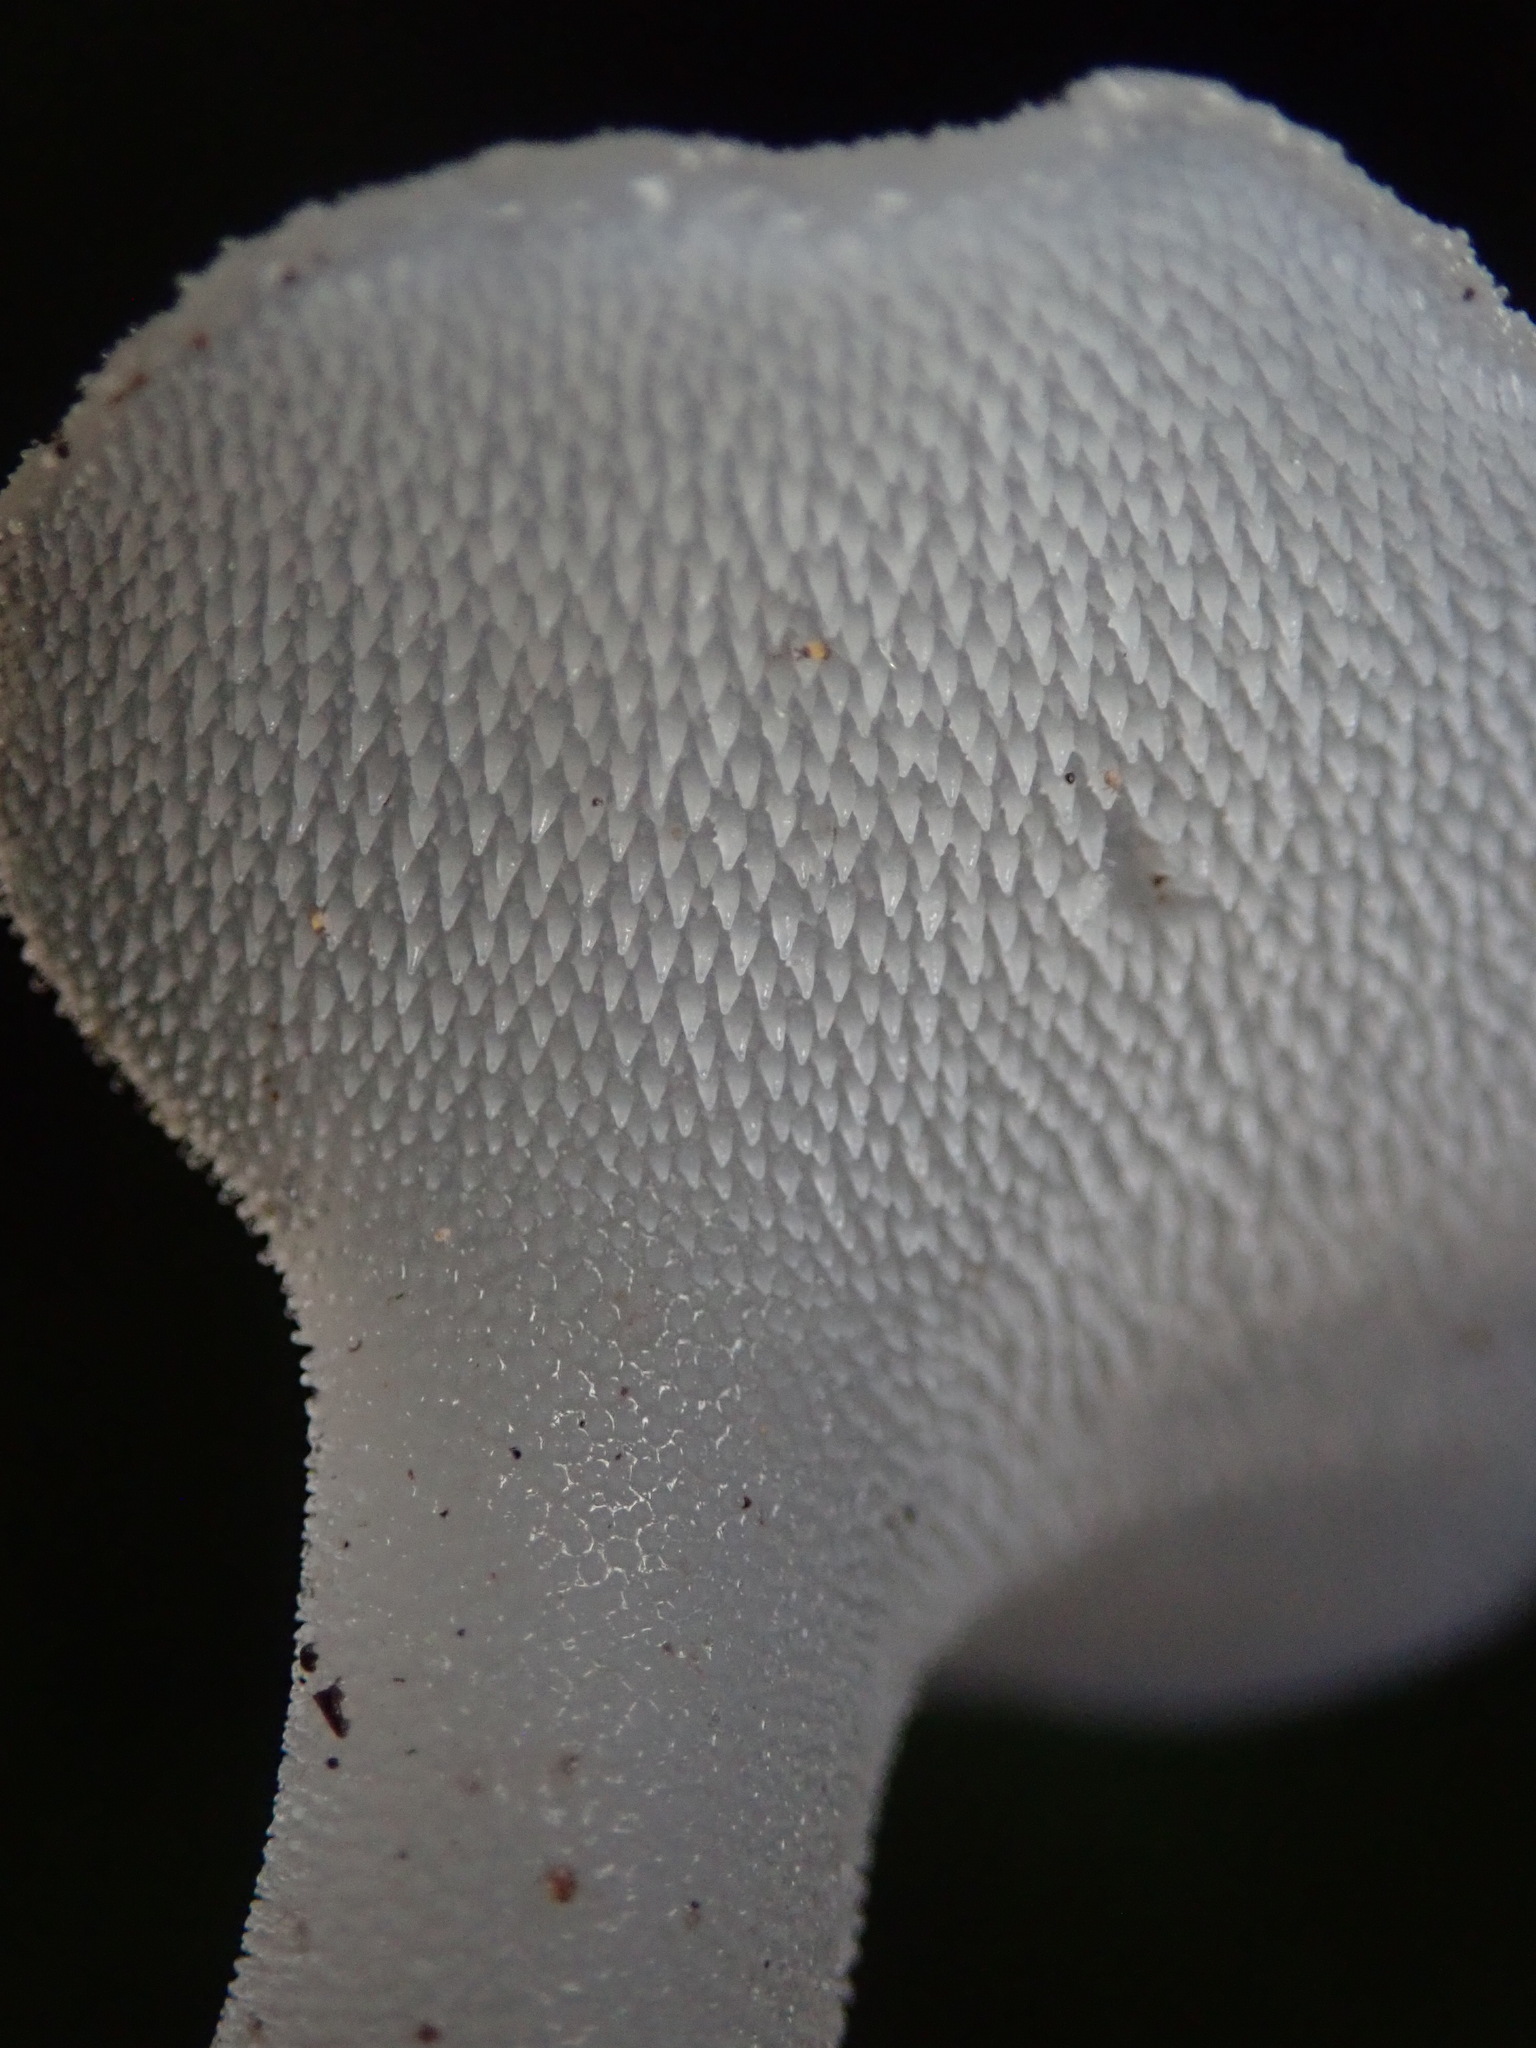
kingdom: Fungi
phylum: Basidiomycota
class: Agaricomycetes
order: Auriculariales
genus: Pseudohydnum
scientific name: Pseudohydnum gelatinosum
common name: Jelly tongue
